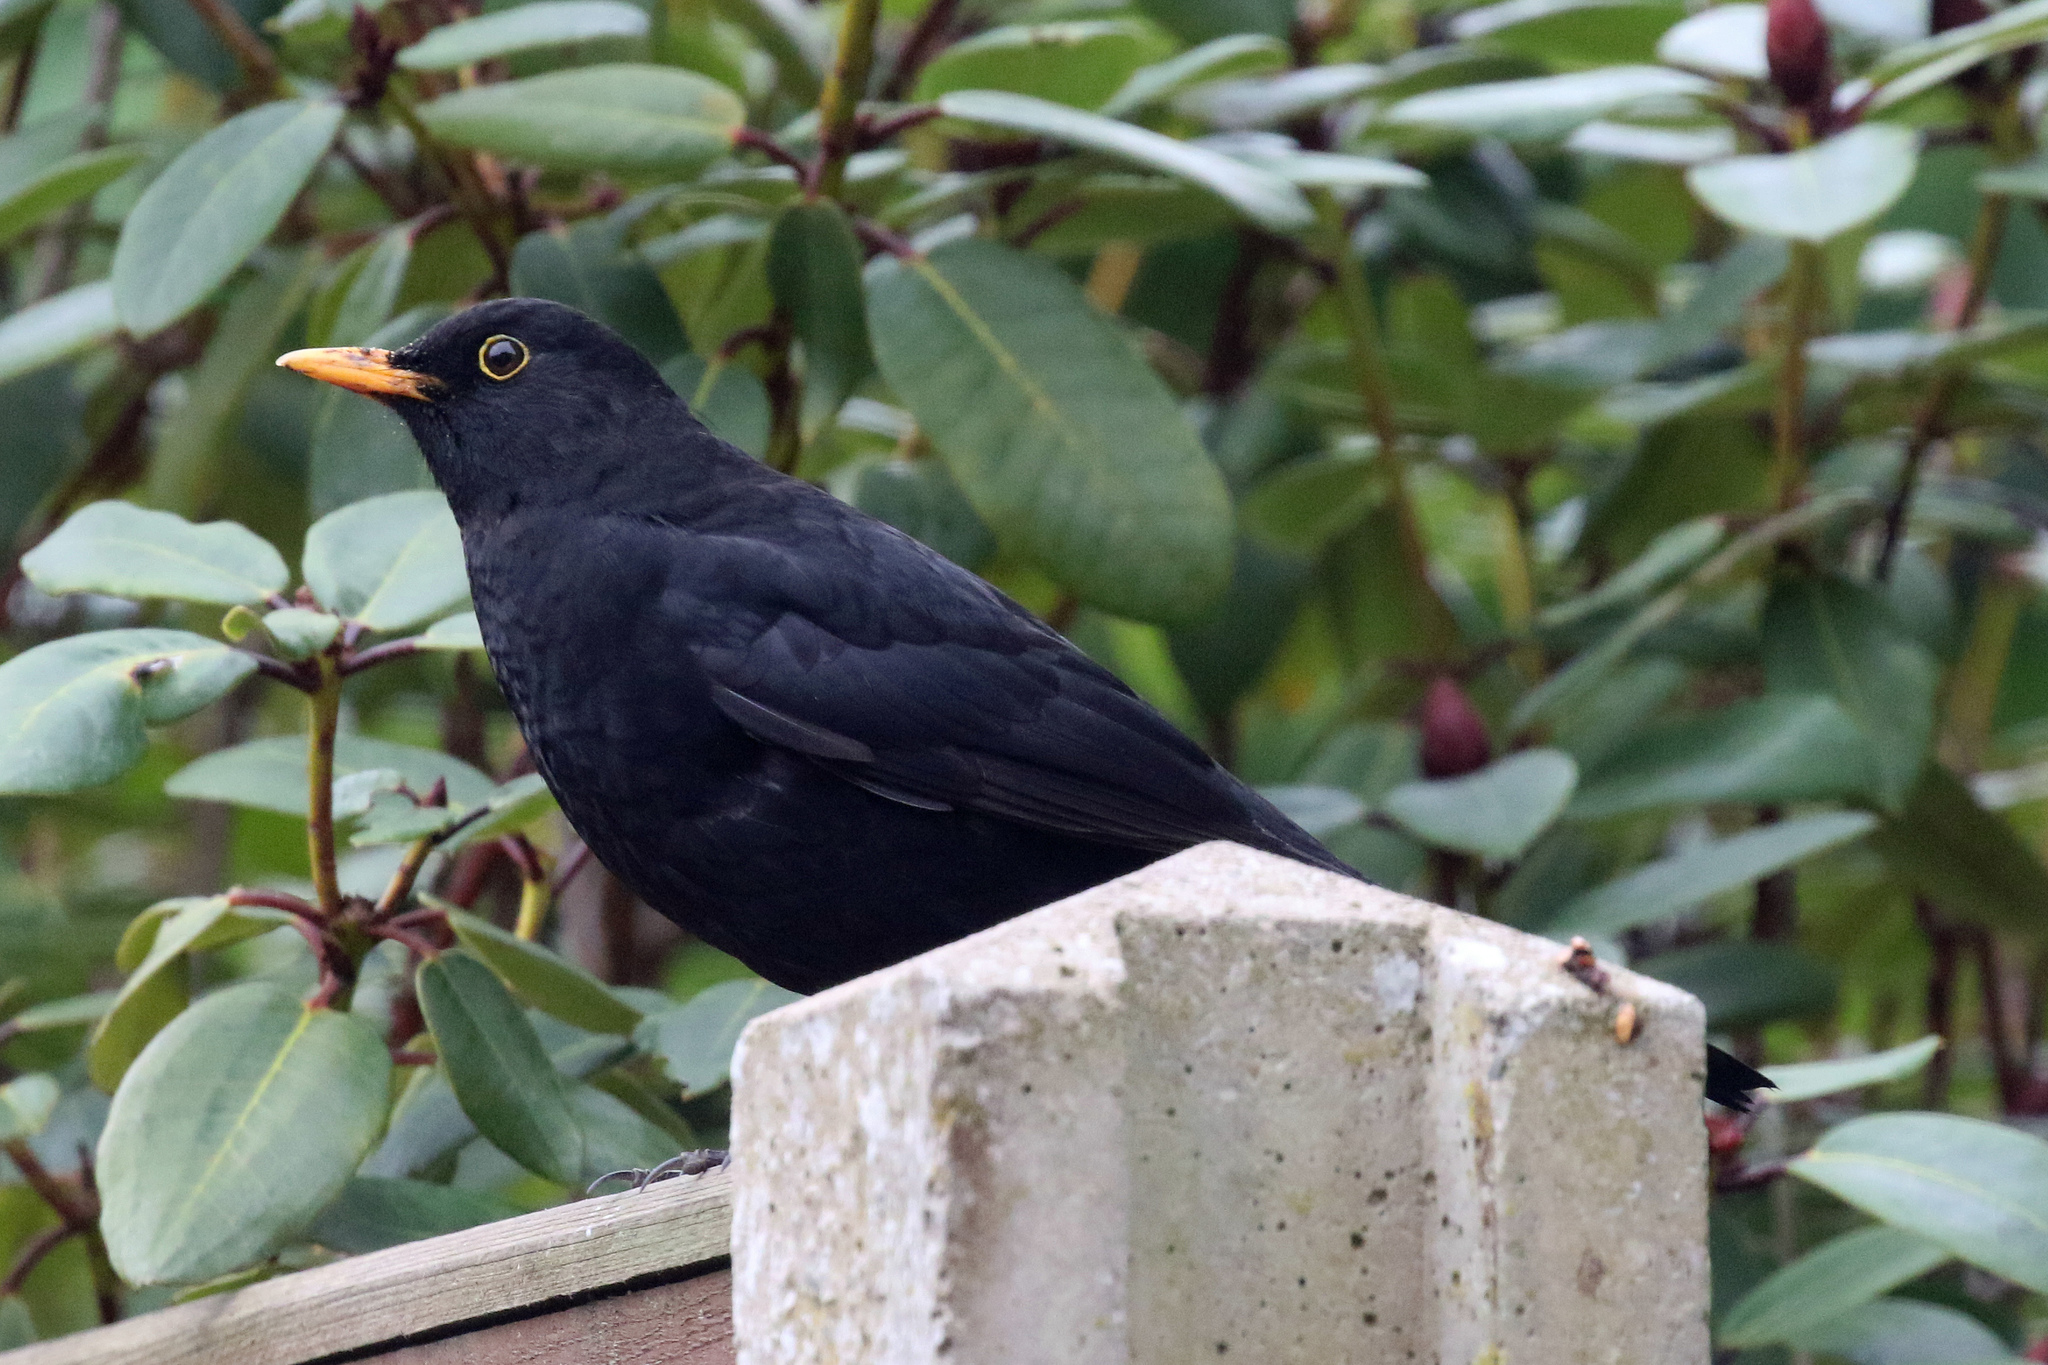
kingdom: Animalia
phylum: Chordata
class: Aves
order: Passeriformes
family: Turdidae
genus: Turdus
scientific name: Turdus merula
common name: Common blackbird
